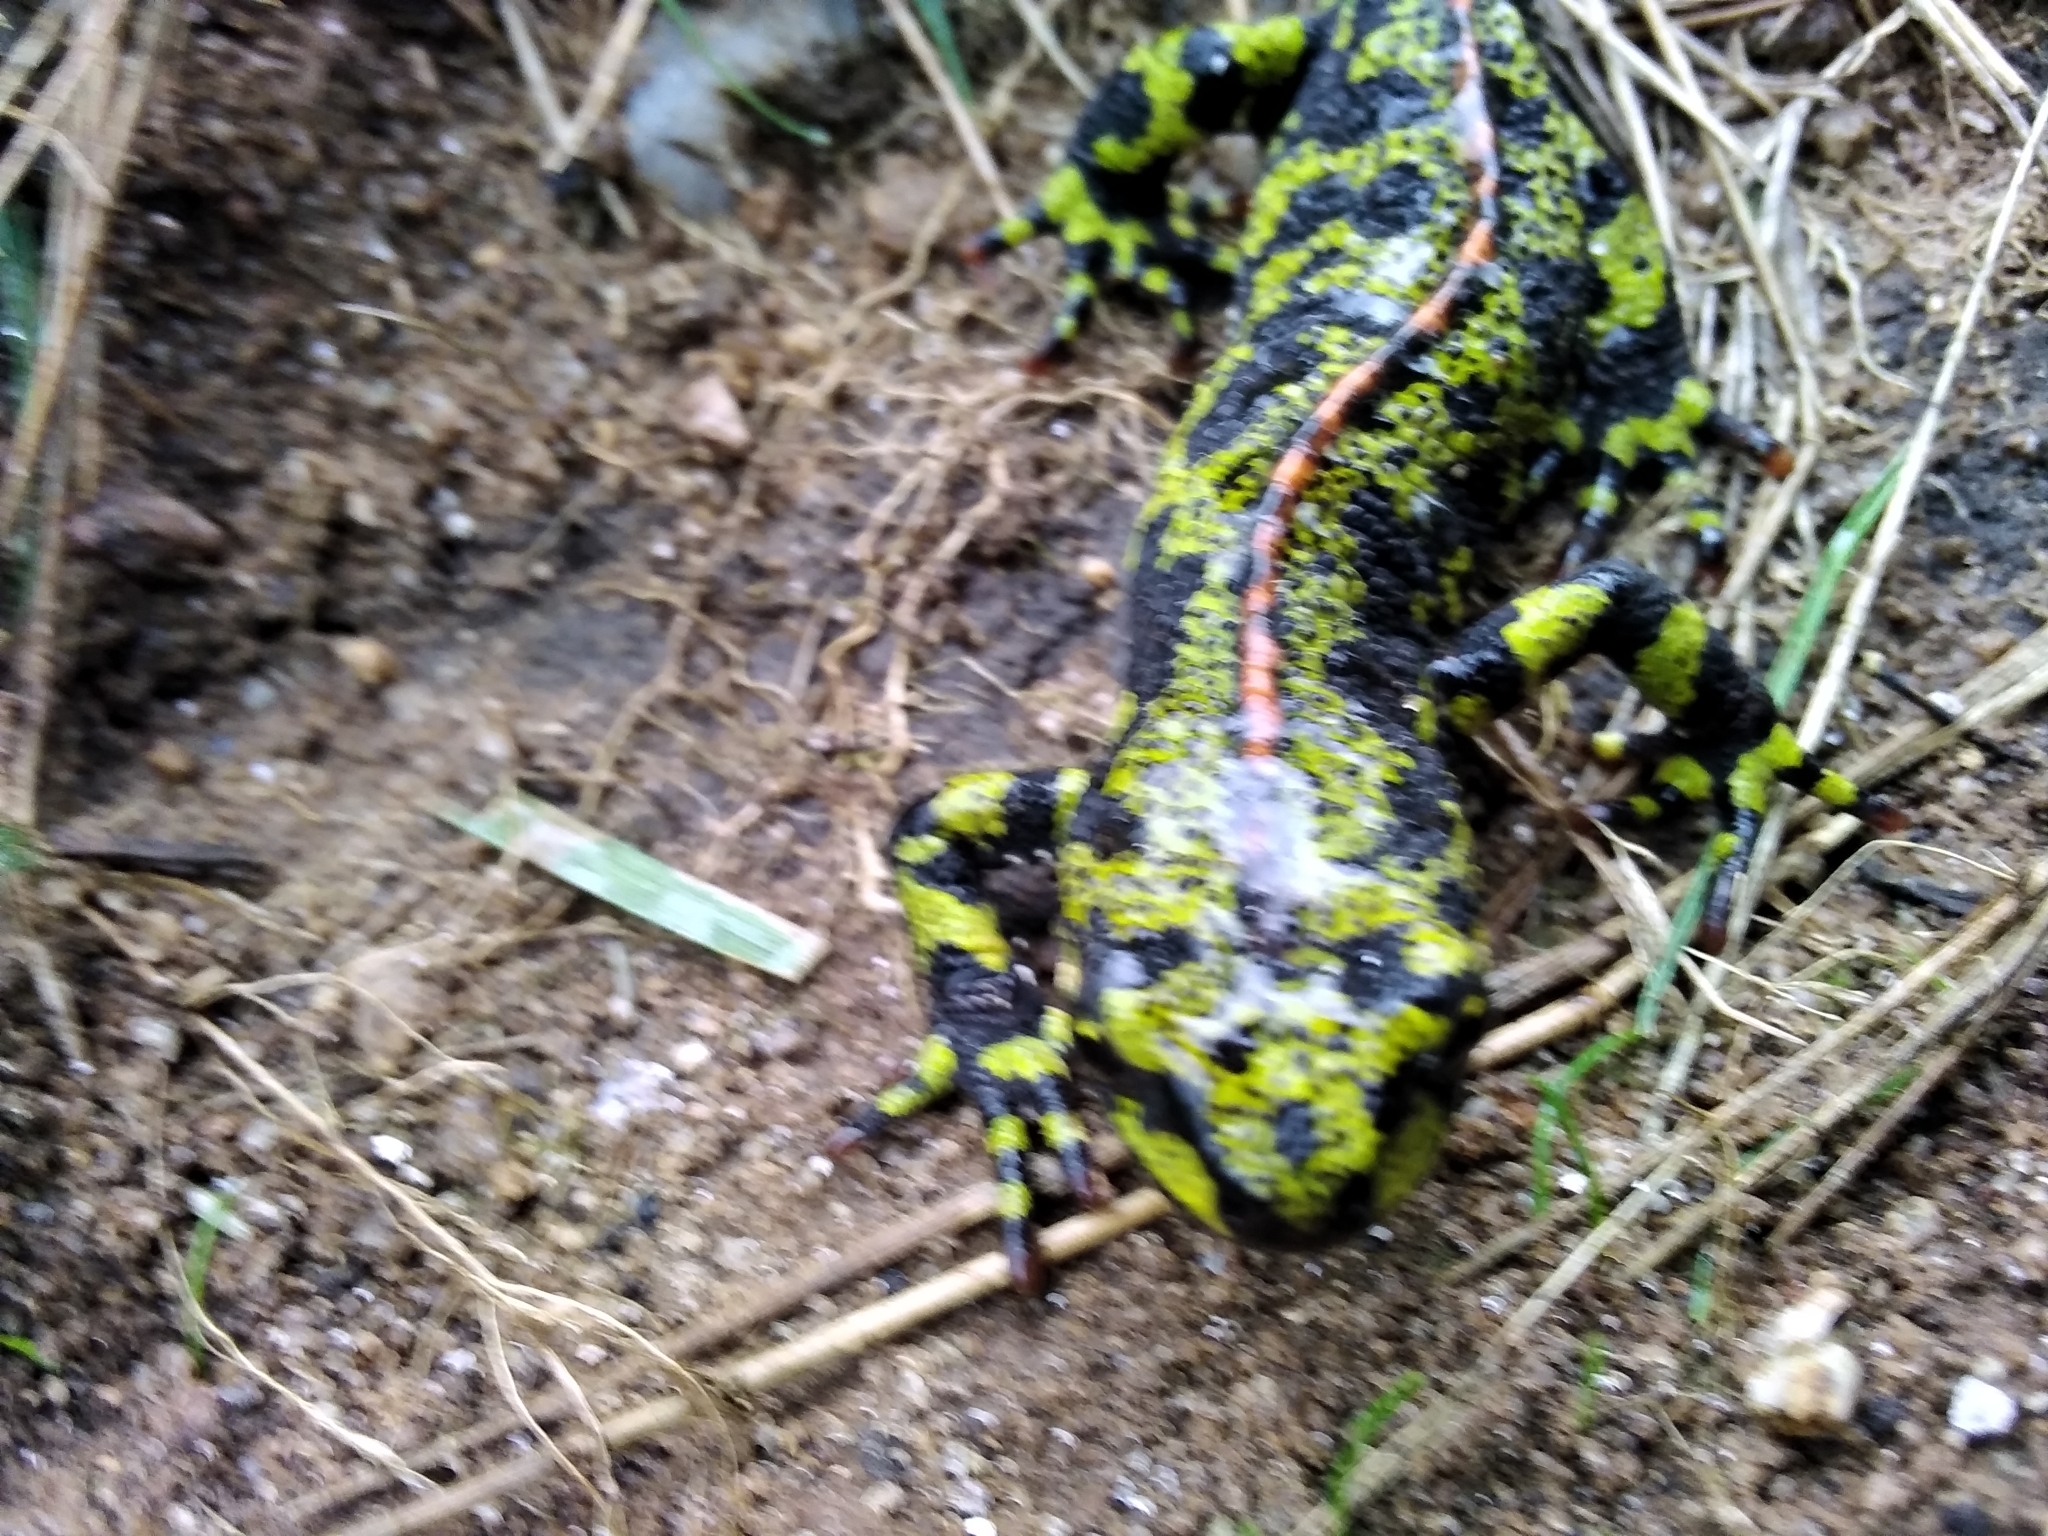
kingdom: Animalia
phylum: Chordata
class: Amphibia
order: Caudata
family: Salamandridae
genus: Triturus
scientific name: Triturus marmoratus
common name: Marbled newt
